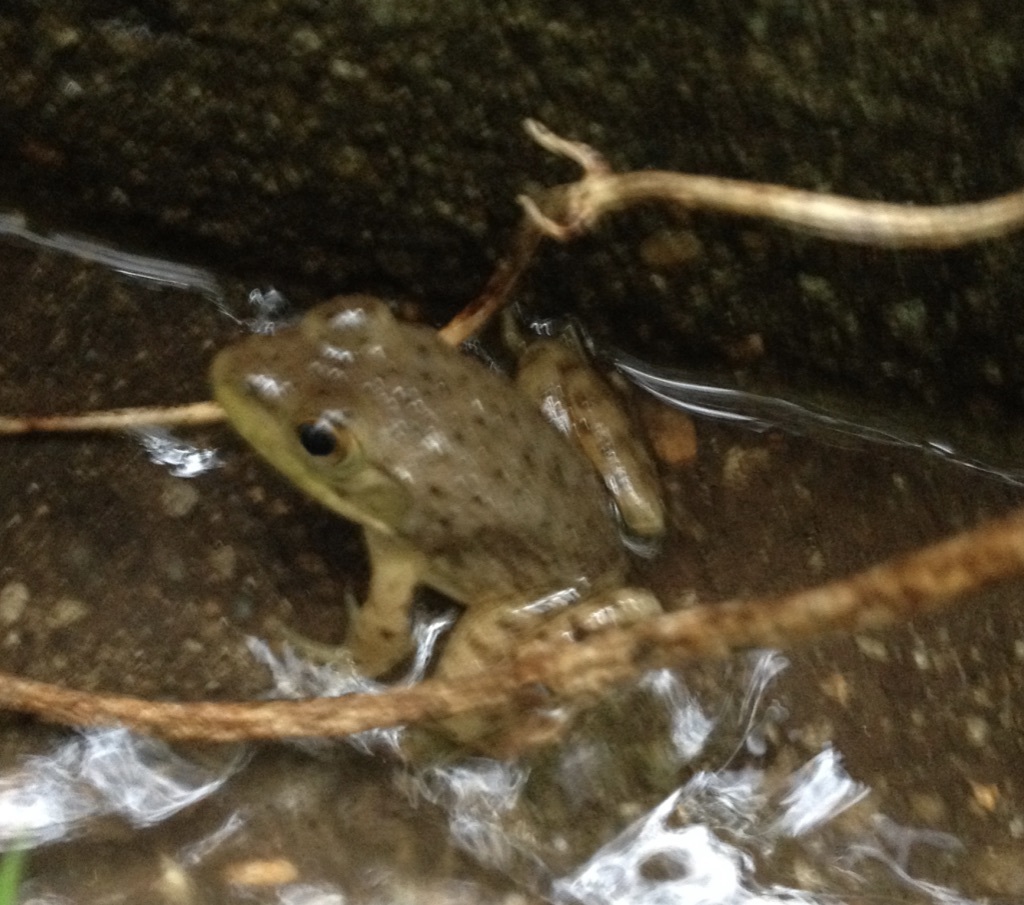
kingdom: Animalia
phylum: Chordata
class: Amphibia
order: Anura
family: Ranidae
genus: Lithobates
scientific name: Lithobates catesbeianus
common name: American bullfrog
